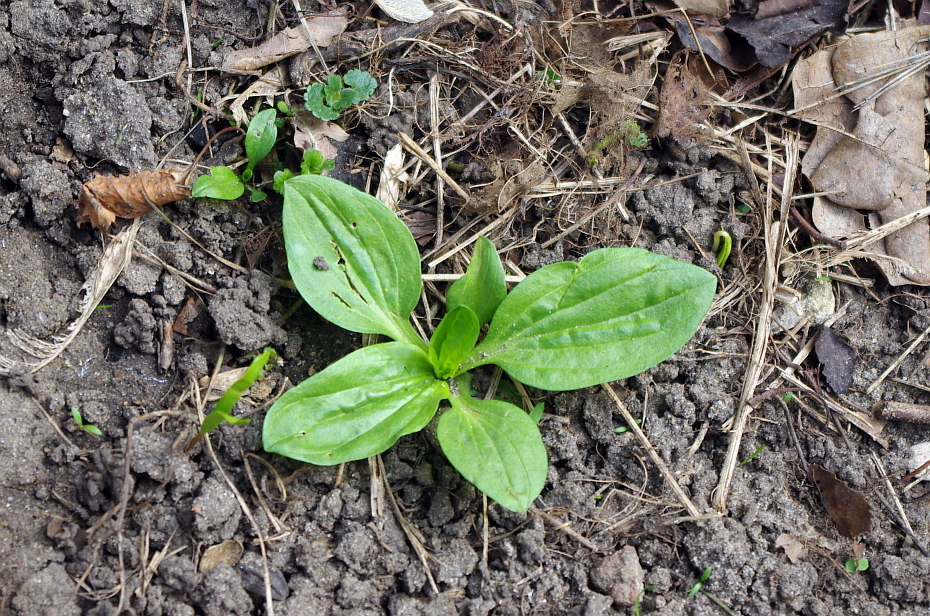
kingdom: Plantae
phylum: Tracheophyta
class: Magnoliopsida
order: Lamiales
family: Plantaginaceae
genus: Plantago
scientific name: Plantago major
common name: Common plantain
